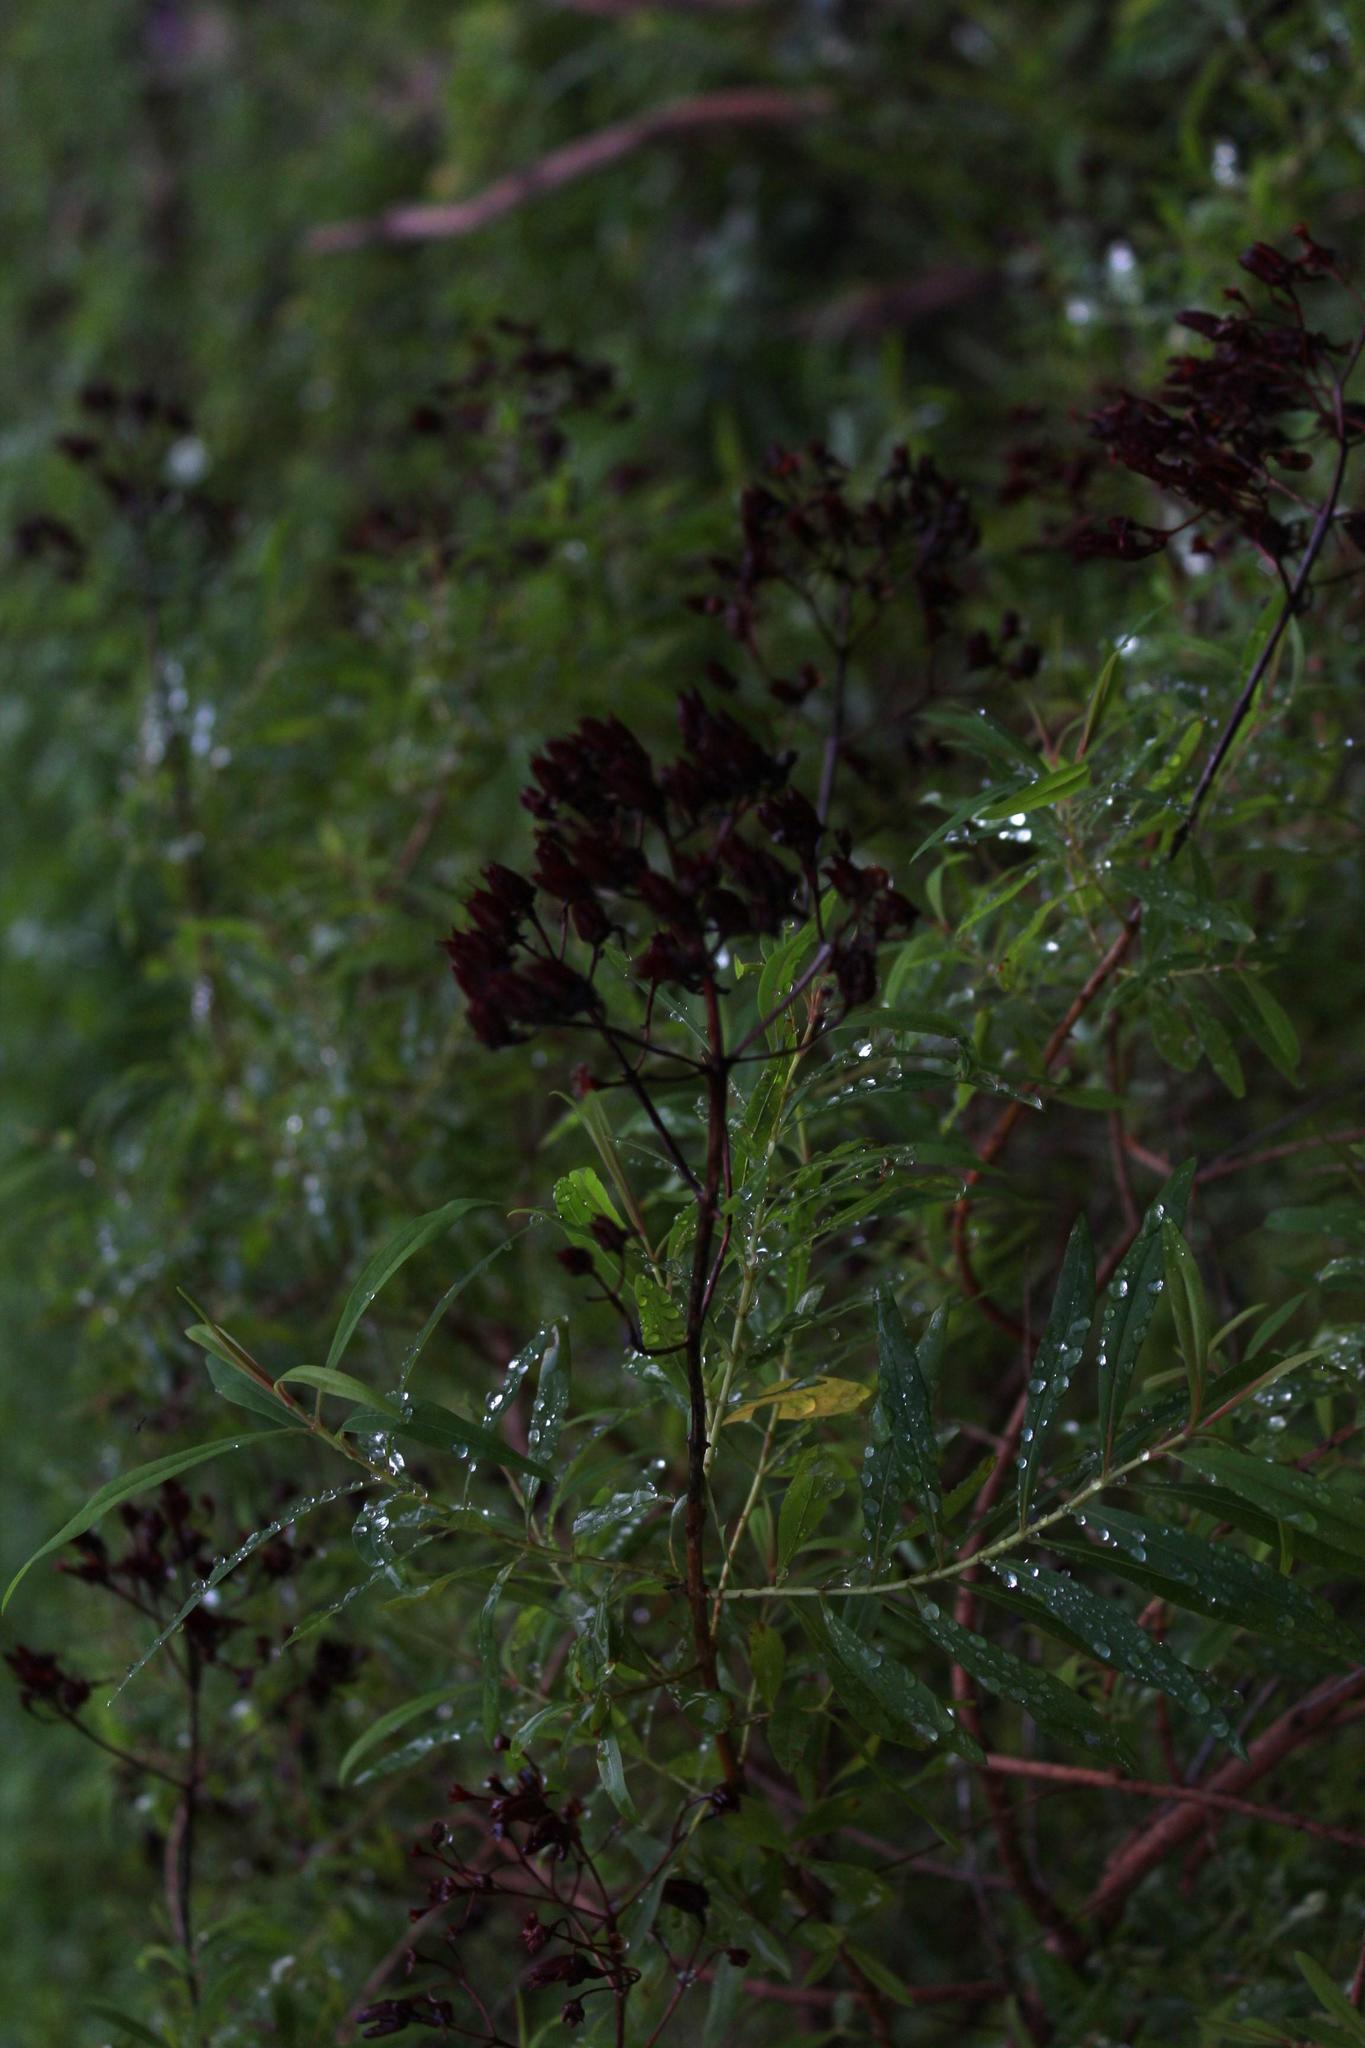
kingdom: Plantae
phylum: Tracheophyta
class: Magnoliopsida
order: Malpighiales
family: Hypericaceae
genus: Hypericum
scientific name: Hypericum canariense
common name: Canary island st. johnswort
